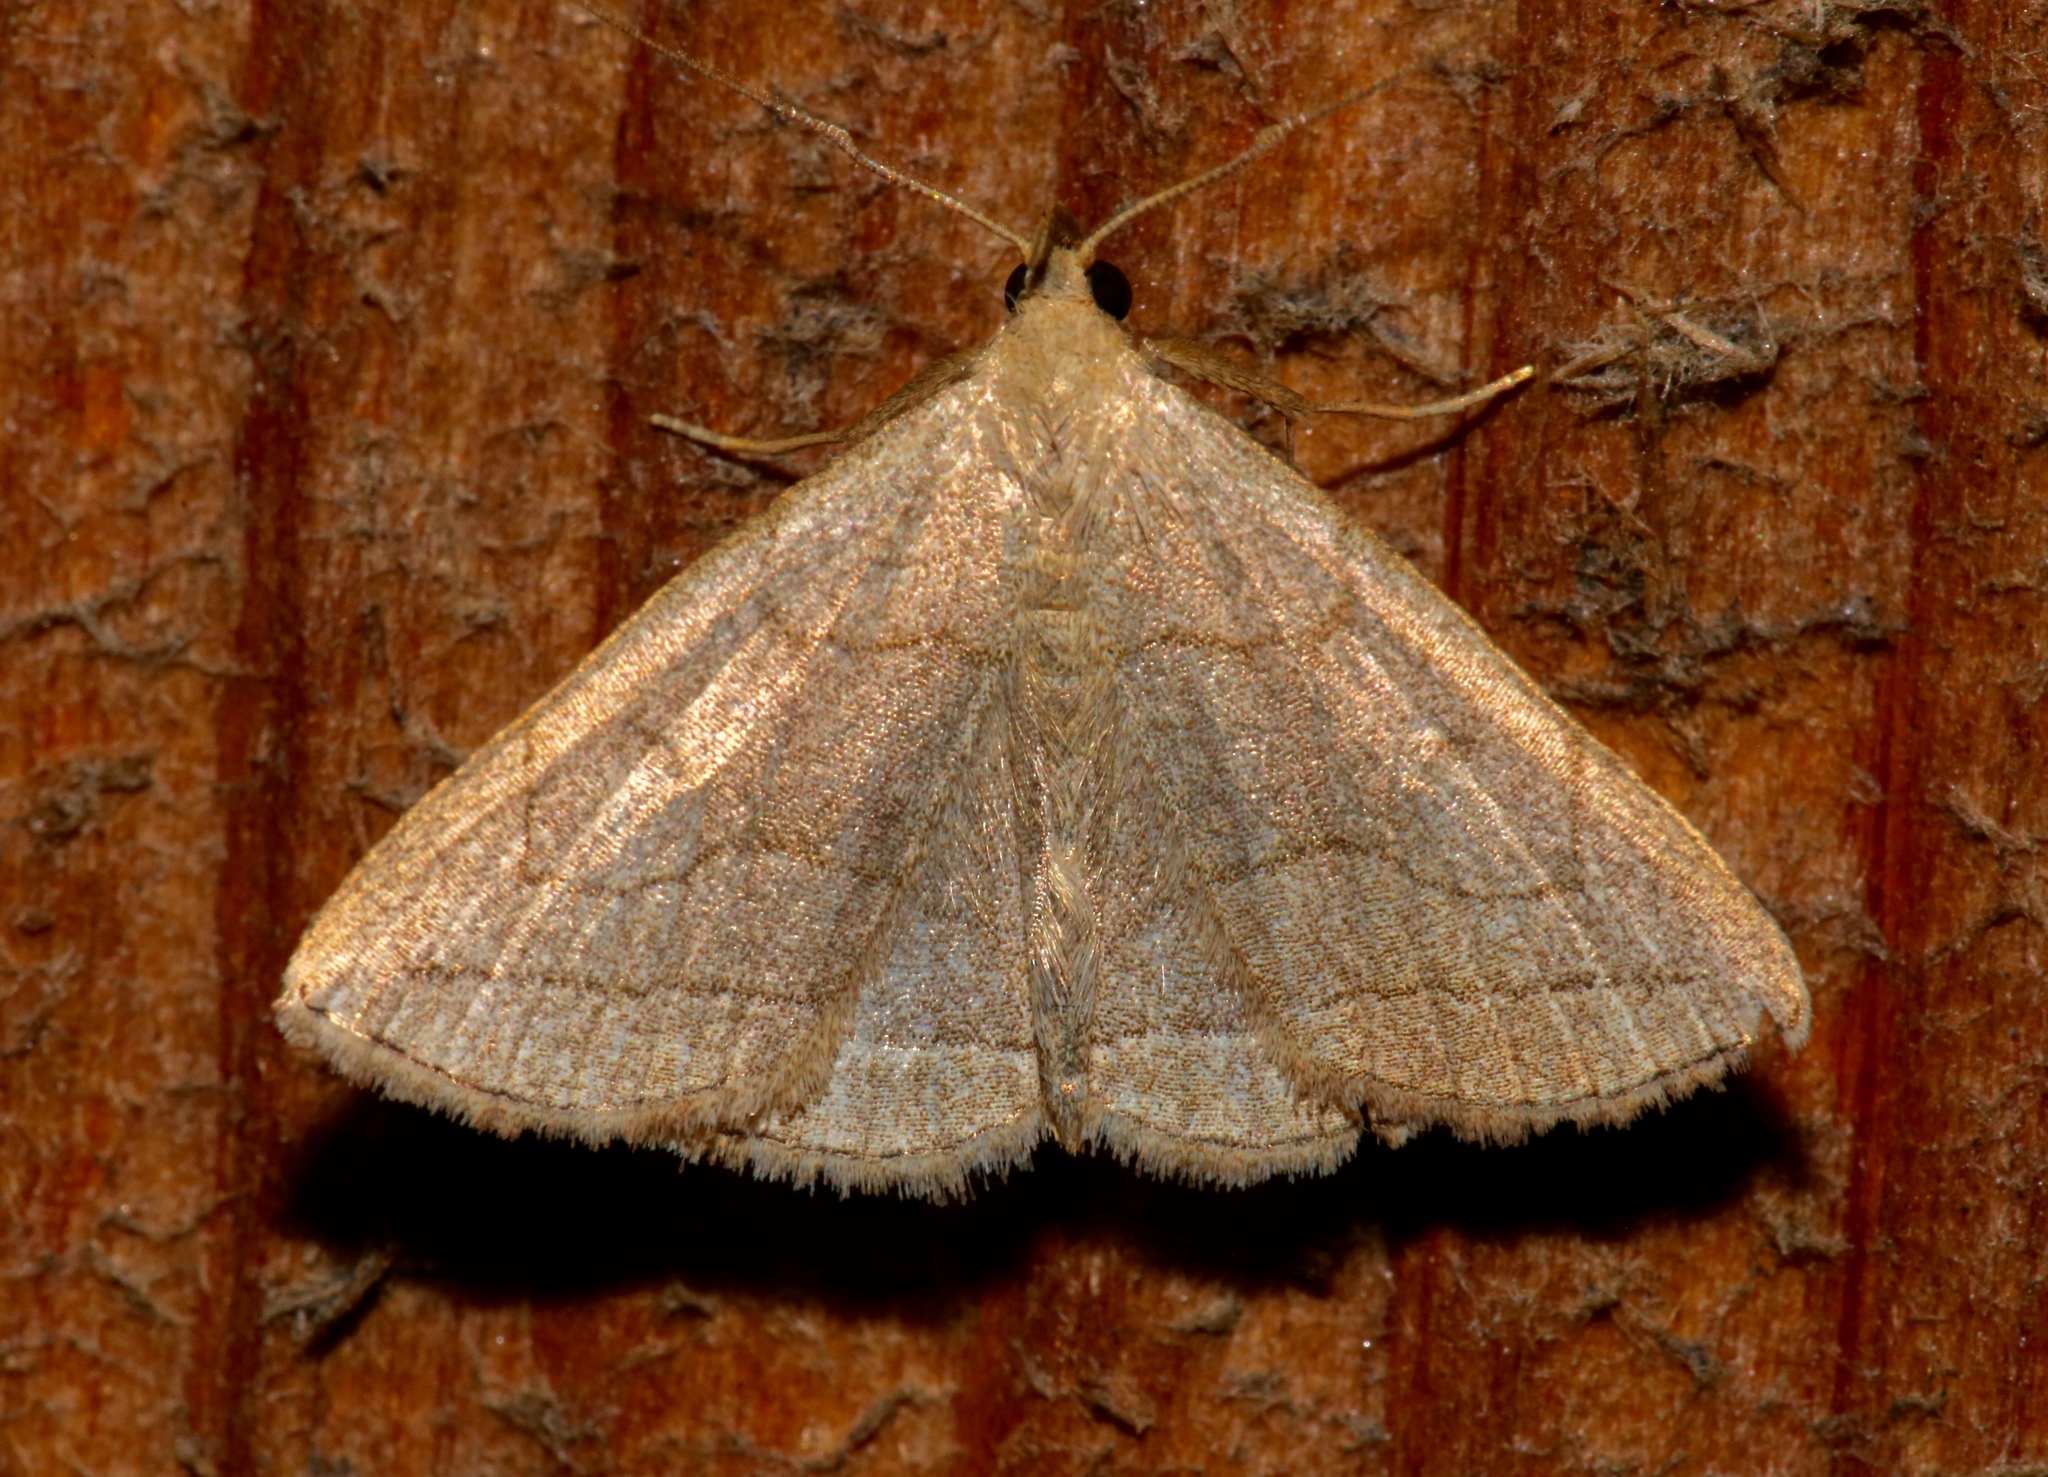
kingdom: Animalia
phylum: Arthropoda
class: Insecta
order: Lepidoptera
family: Erebidae
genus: Zanclognatha
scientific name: Zanclognatha pedipilalis
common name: Grayish fan-foot
